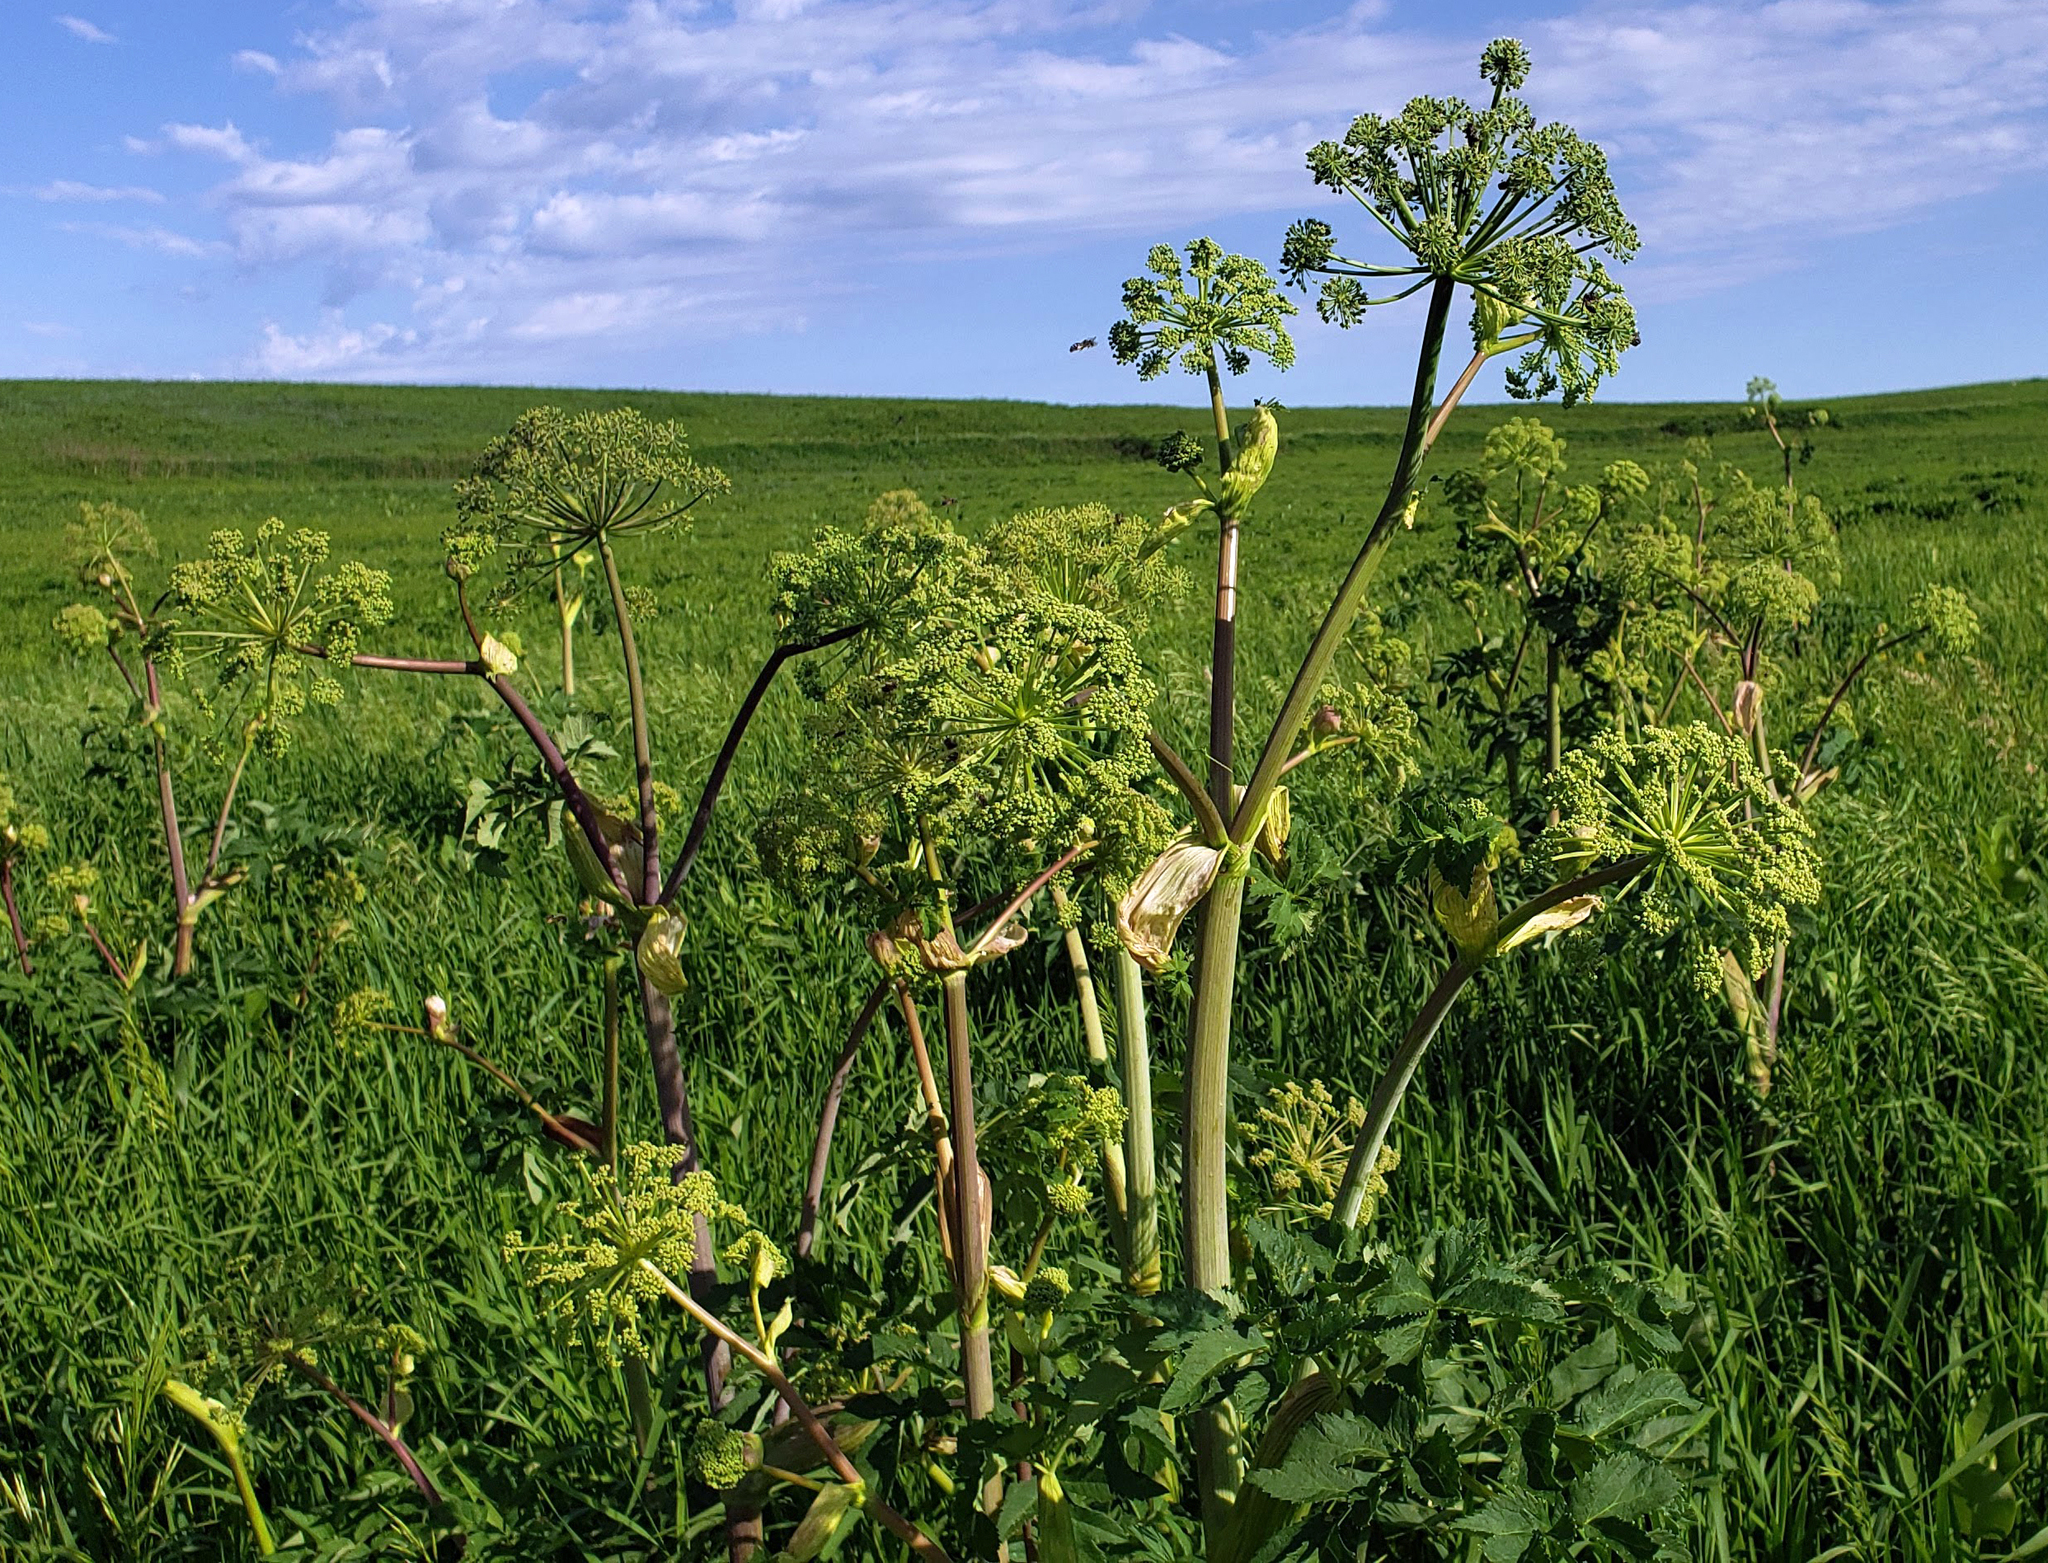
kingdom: Plantae
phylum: Tracheophyta
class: Magnoliopsida
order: Apiales
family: Apiaceae
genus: Angelica
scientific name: Angelica atropurpurea
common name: Great angelica
